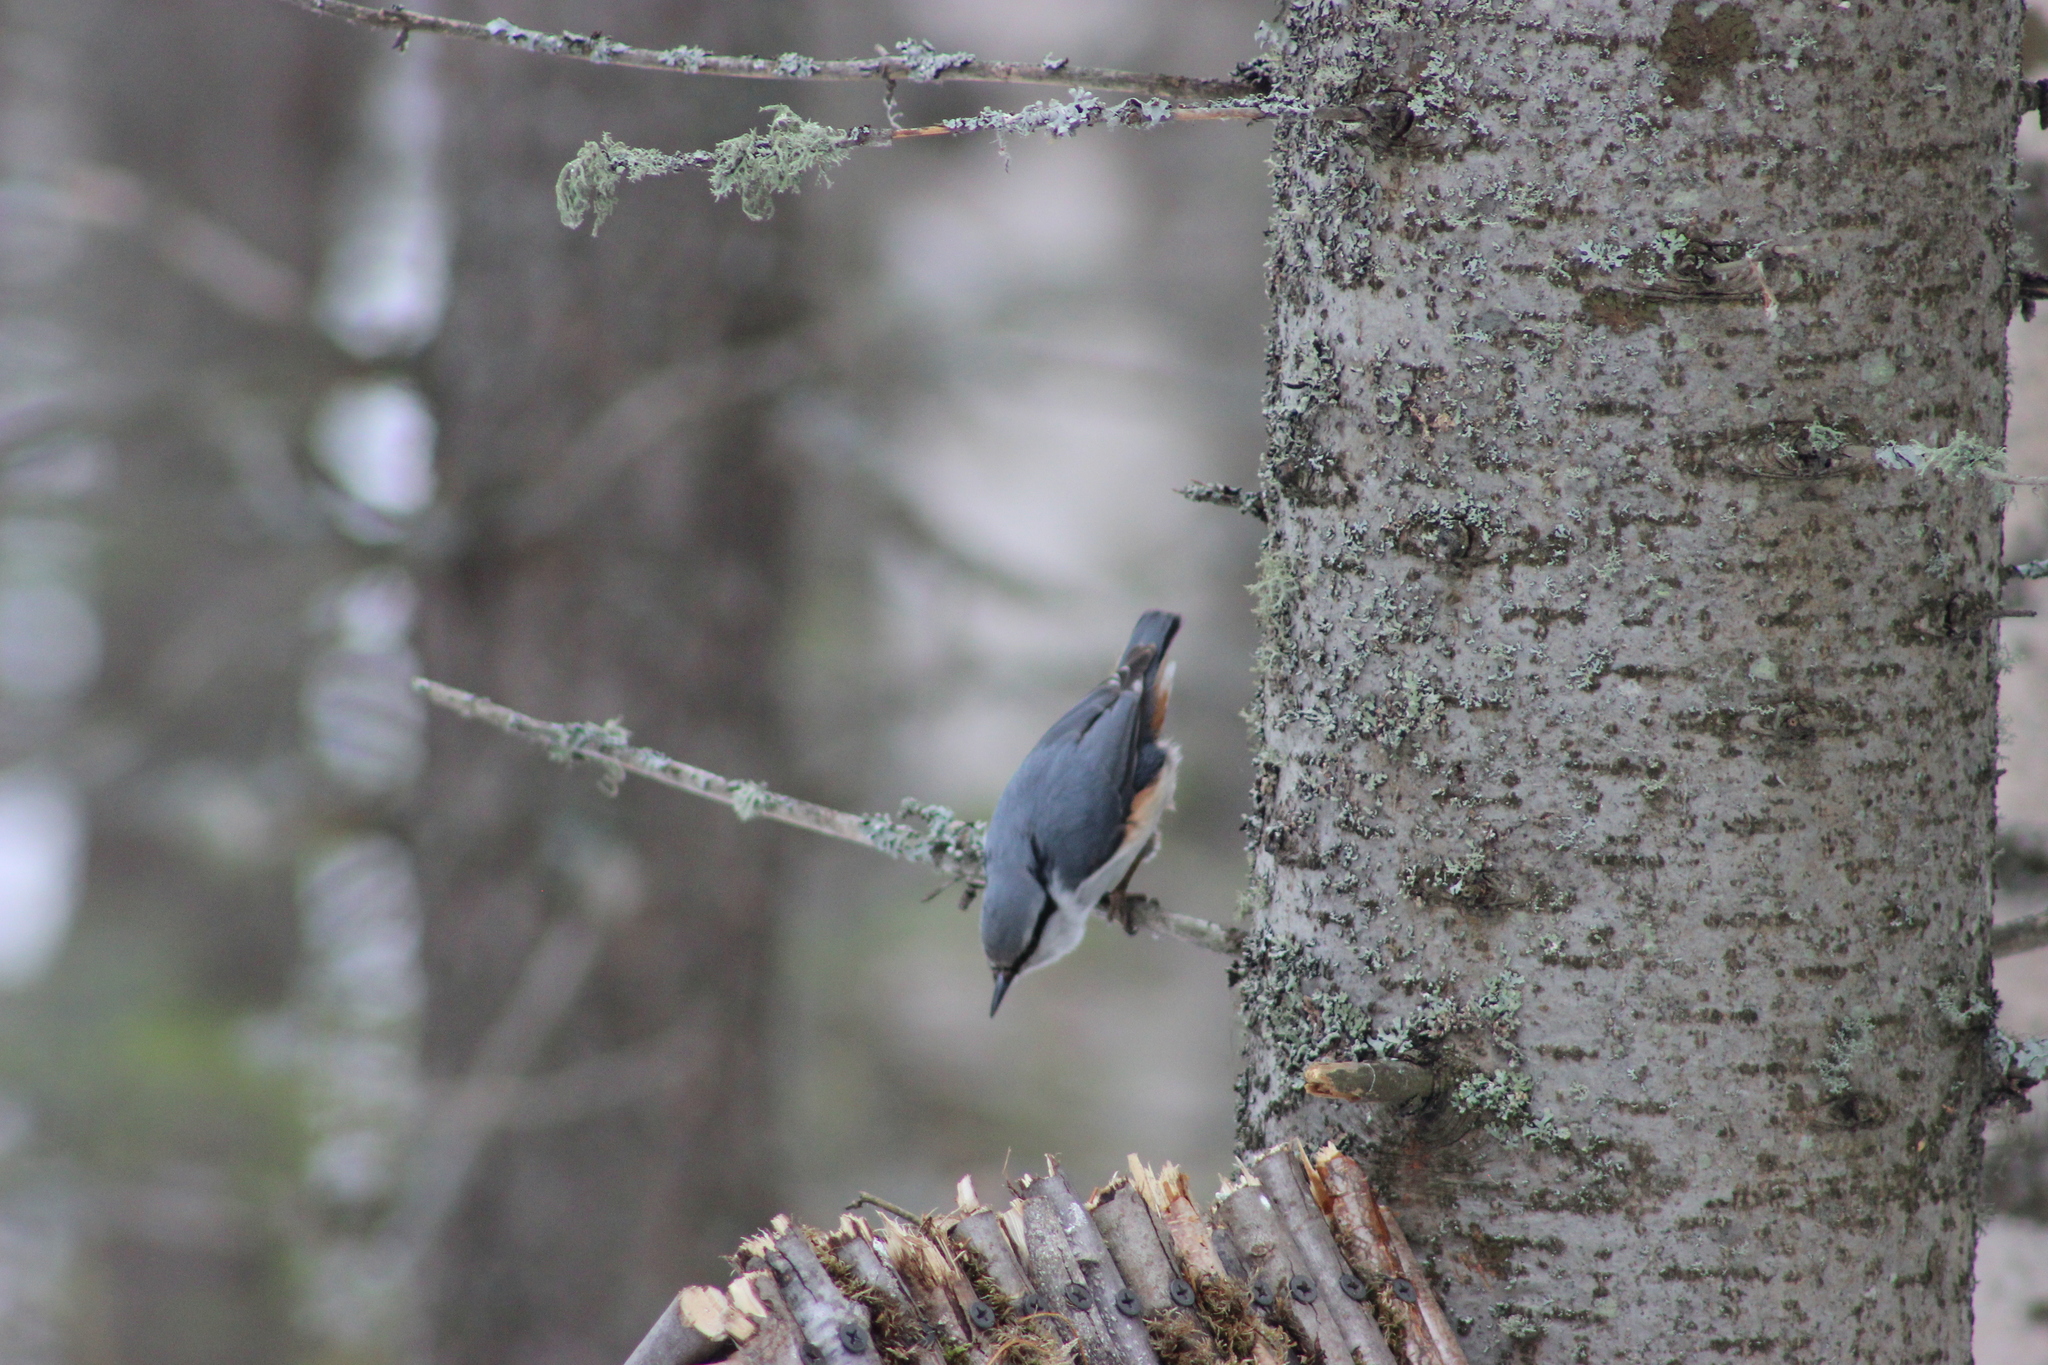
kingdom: Animalia
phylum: Chordata
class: Aves
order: Passeriformes
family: Sittidae
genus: Sitta
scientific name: Sitta europaea
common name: Eurasian nuthatch
